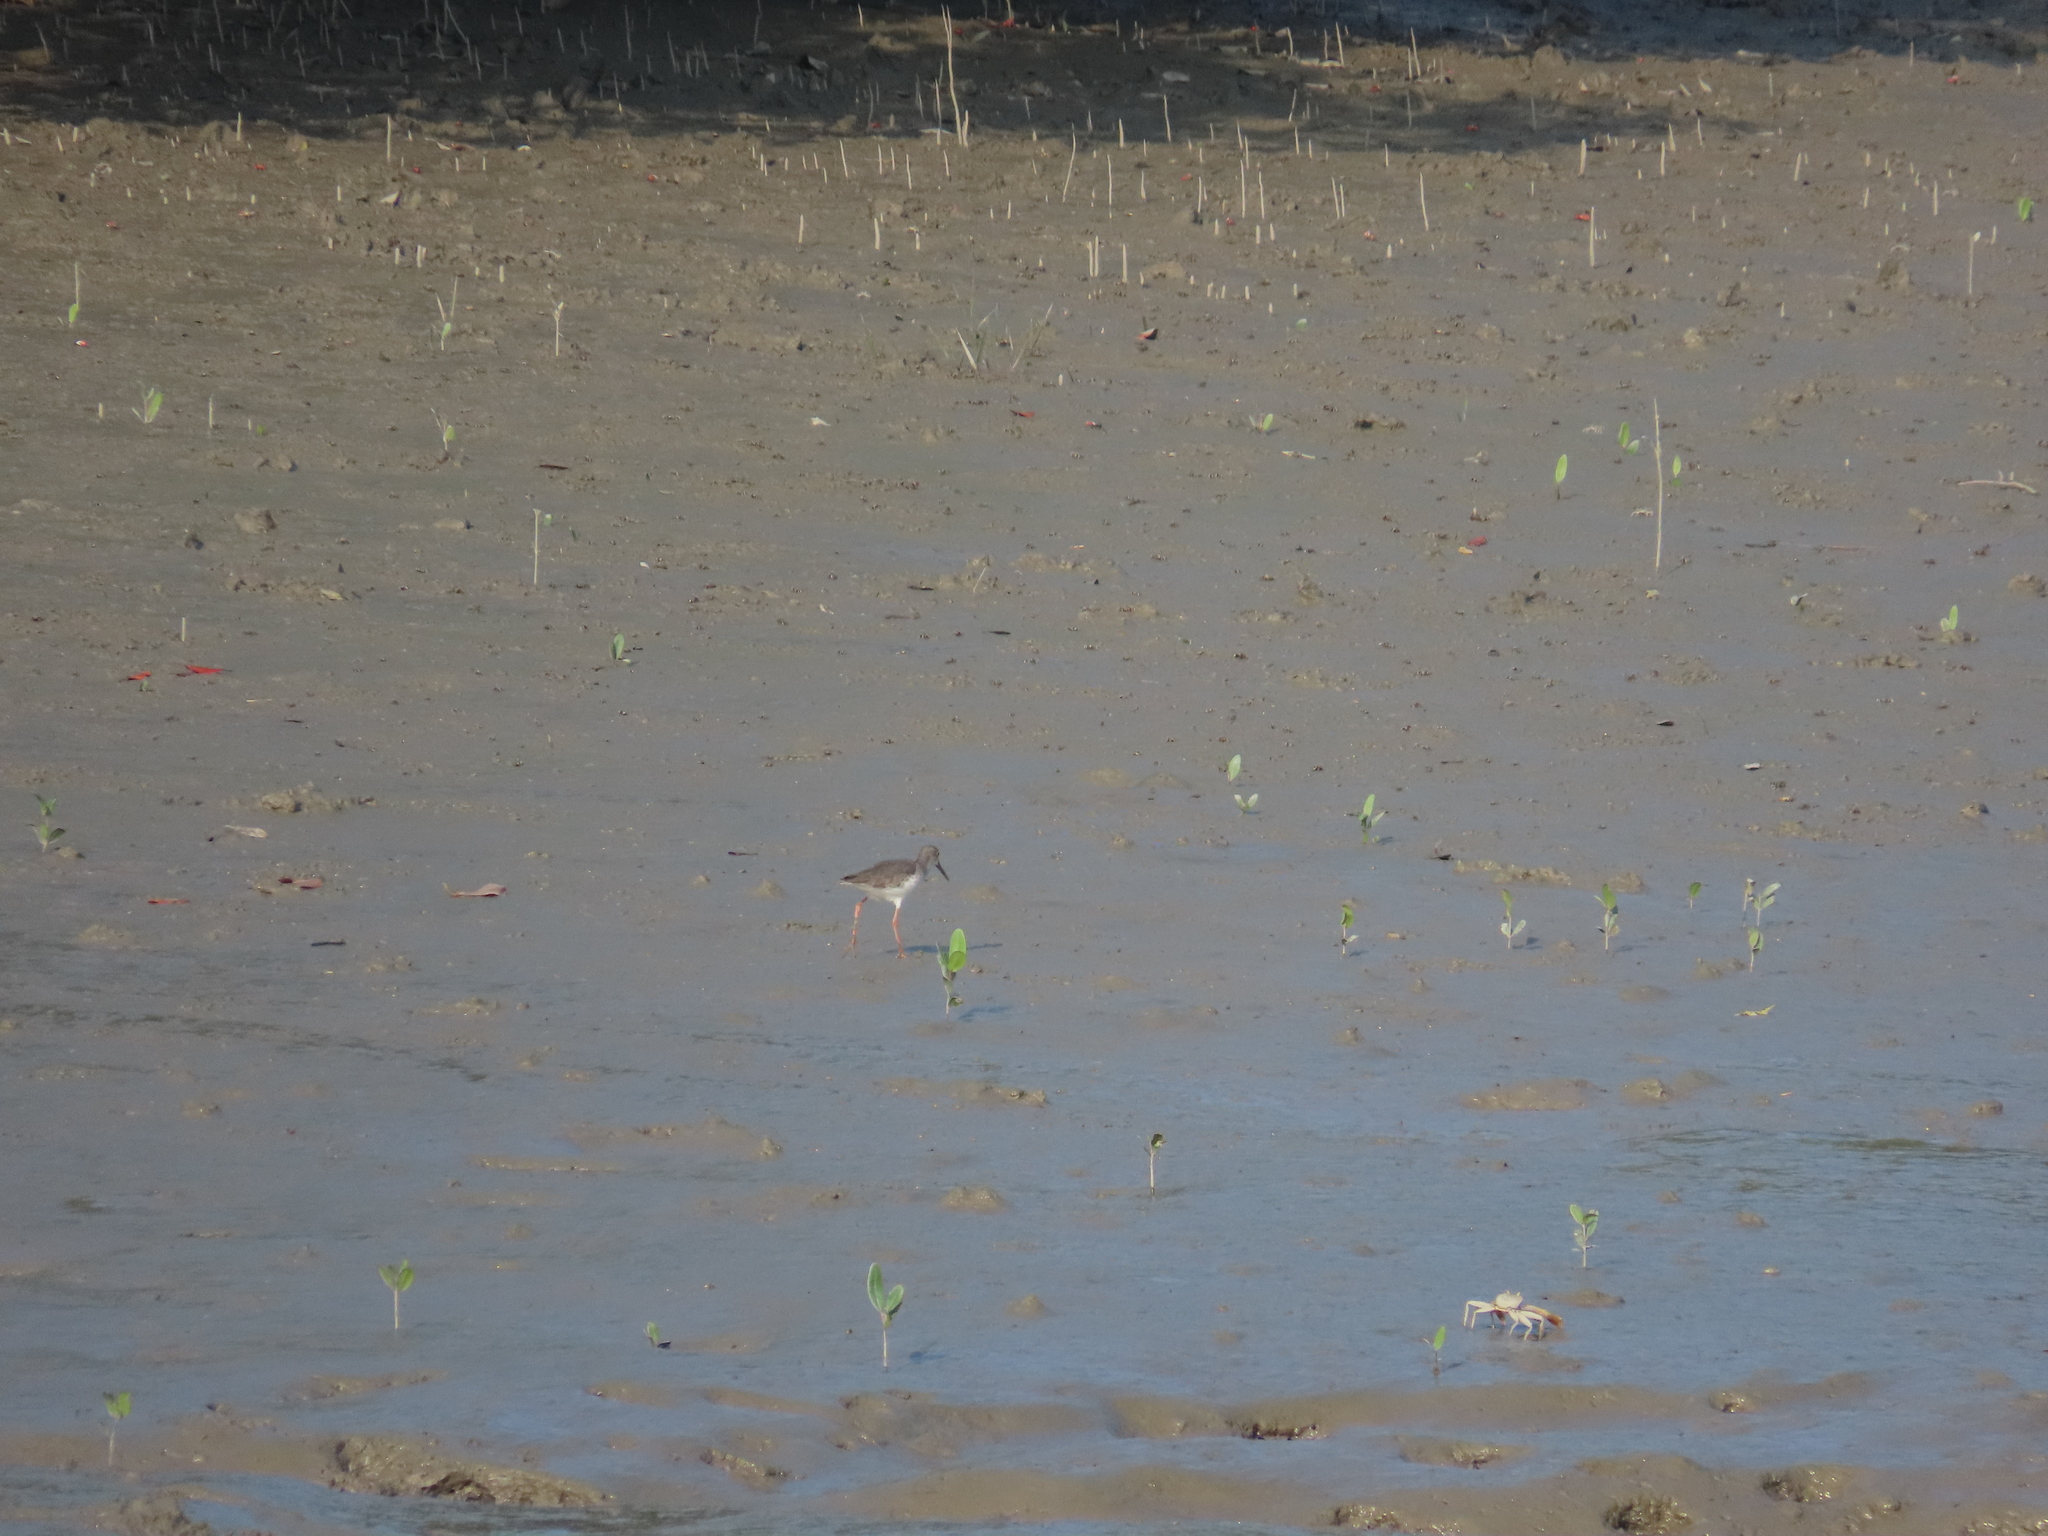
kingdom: Animalia
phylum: Chordata
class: Aves
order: Charadriiformes
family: Scolopacidae
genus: Tringa
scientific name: Tringa totanus
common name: Common redshank
